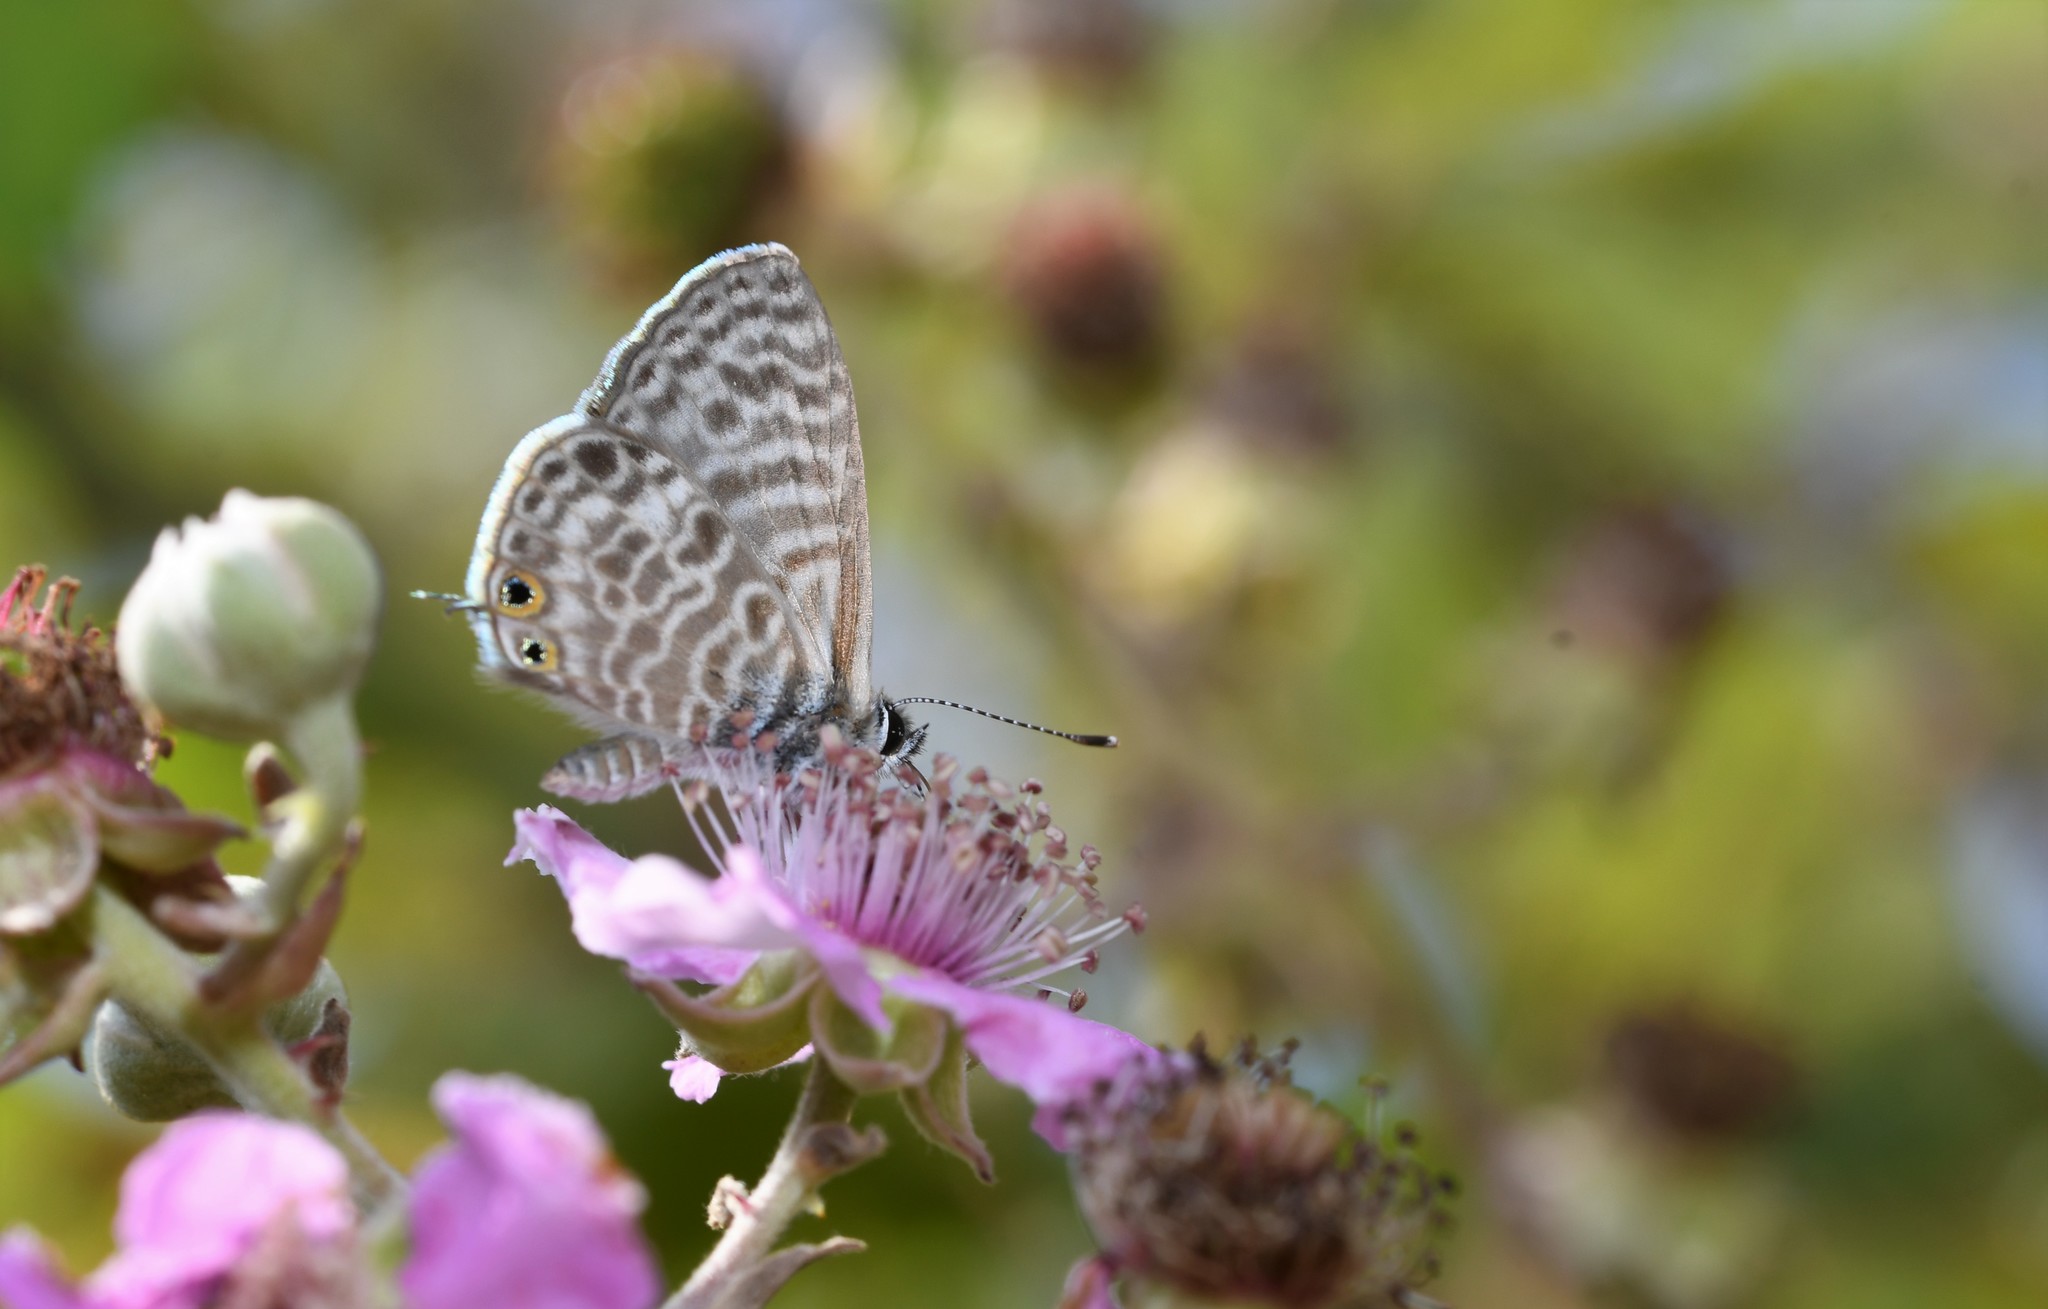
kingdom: Animalia
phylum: Arthropoda
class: Insecta
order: Lepidoptera
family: Lycaenidae
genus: Leptotes
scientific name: Leptotes pirithous
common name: Lang's short-tailed blue
